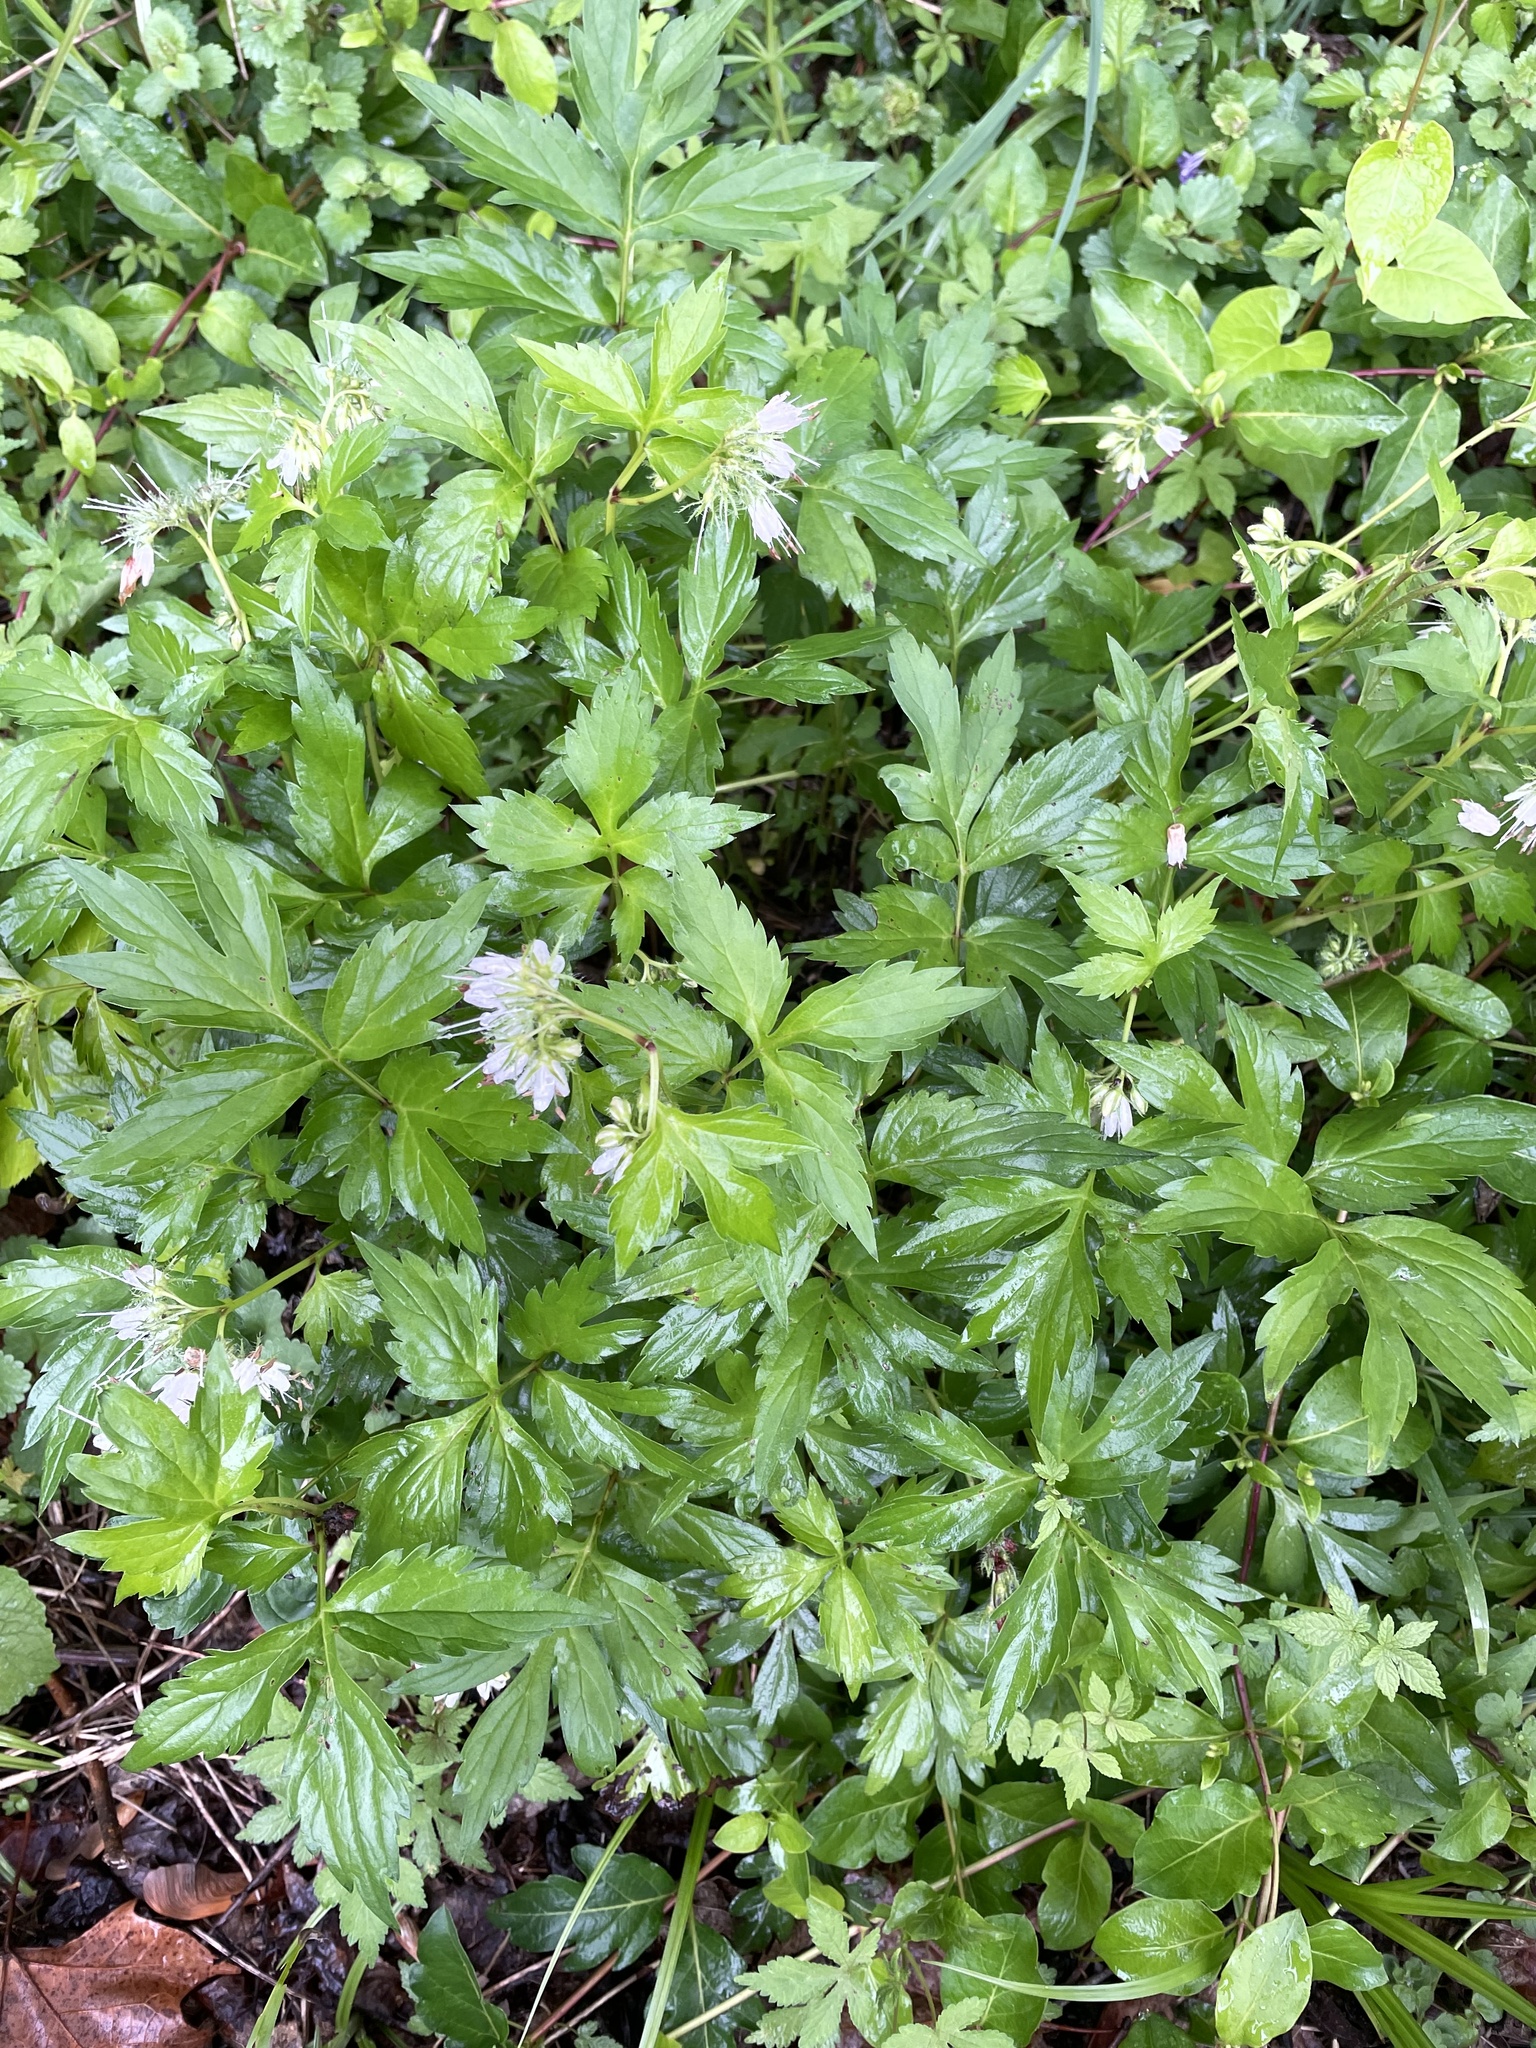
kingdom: Plantae
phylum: Tracheophyta
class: Magnoliopsida
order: Boraginales
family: Hydrophyllaceae
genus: Hydrophyllum
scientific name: Hydrophyllum virginianum
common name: Virginia waterleaf
